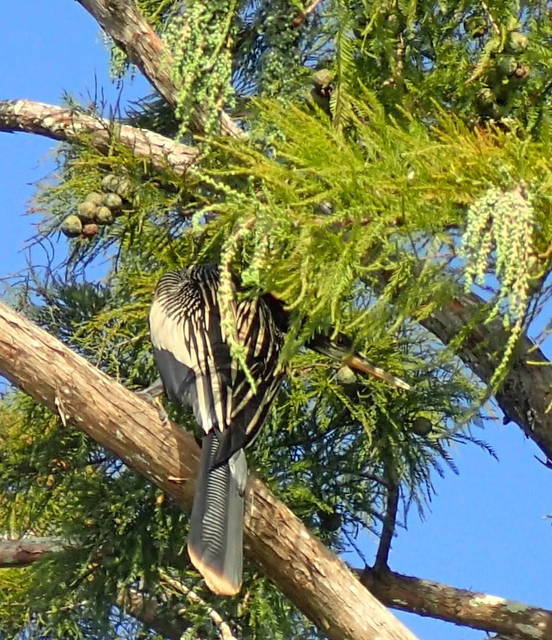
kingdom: Animalia
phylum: Chordata
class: Aves
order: Suliformes
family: Anhingidae
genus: Anhinga
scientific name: Anhinga anhinga
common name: Anhinga
